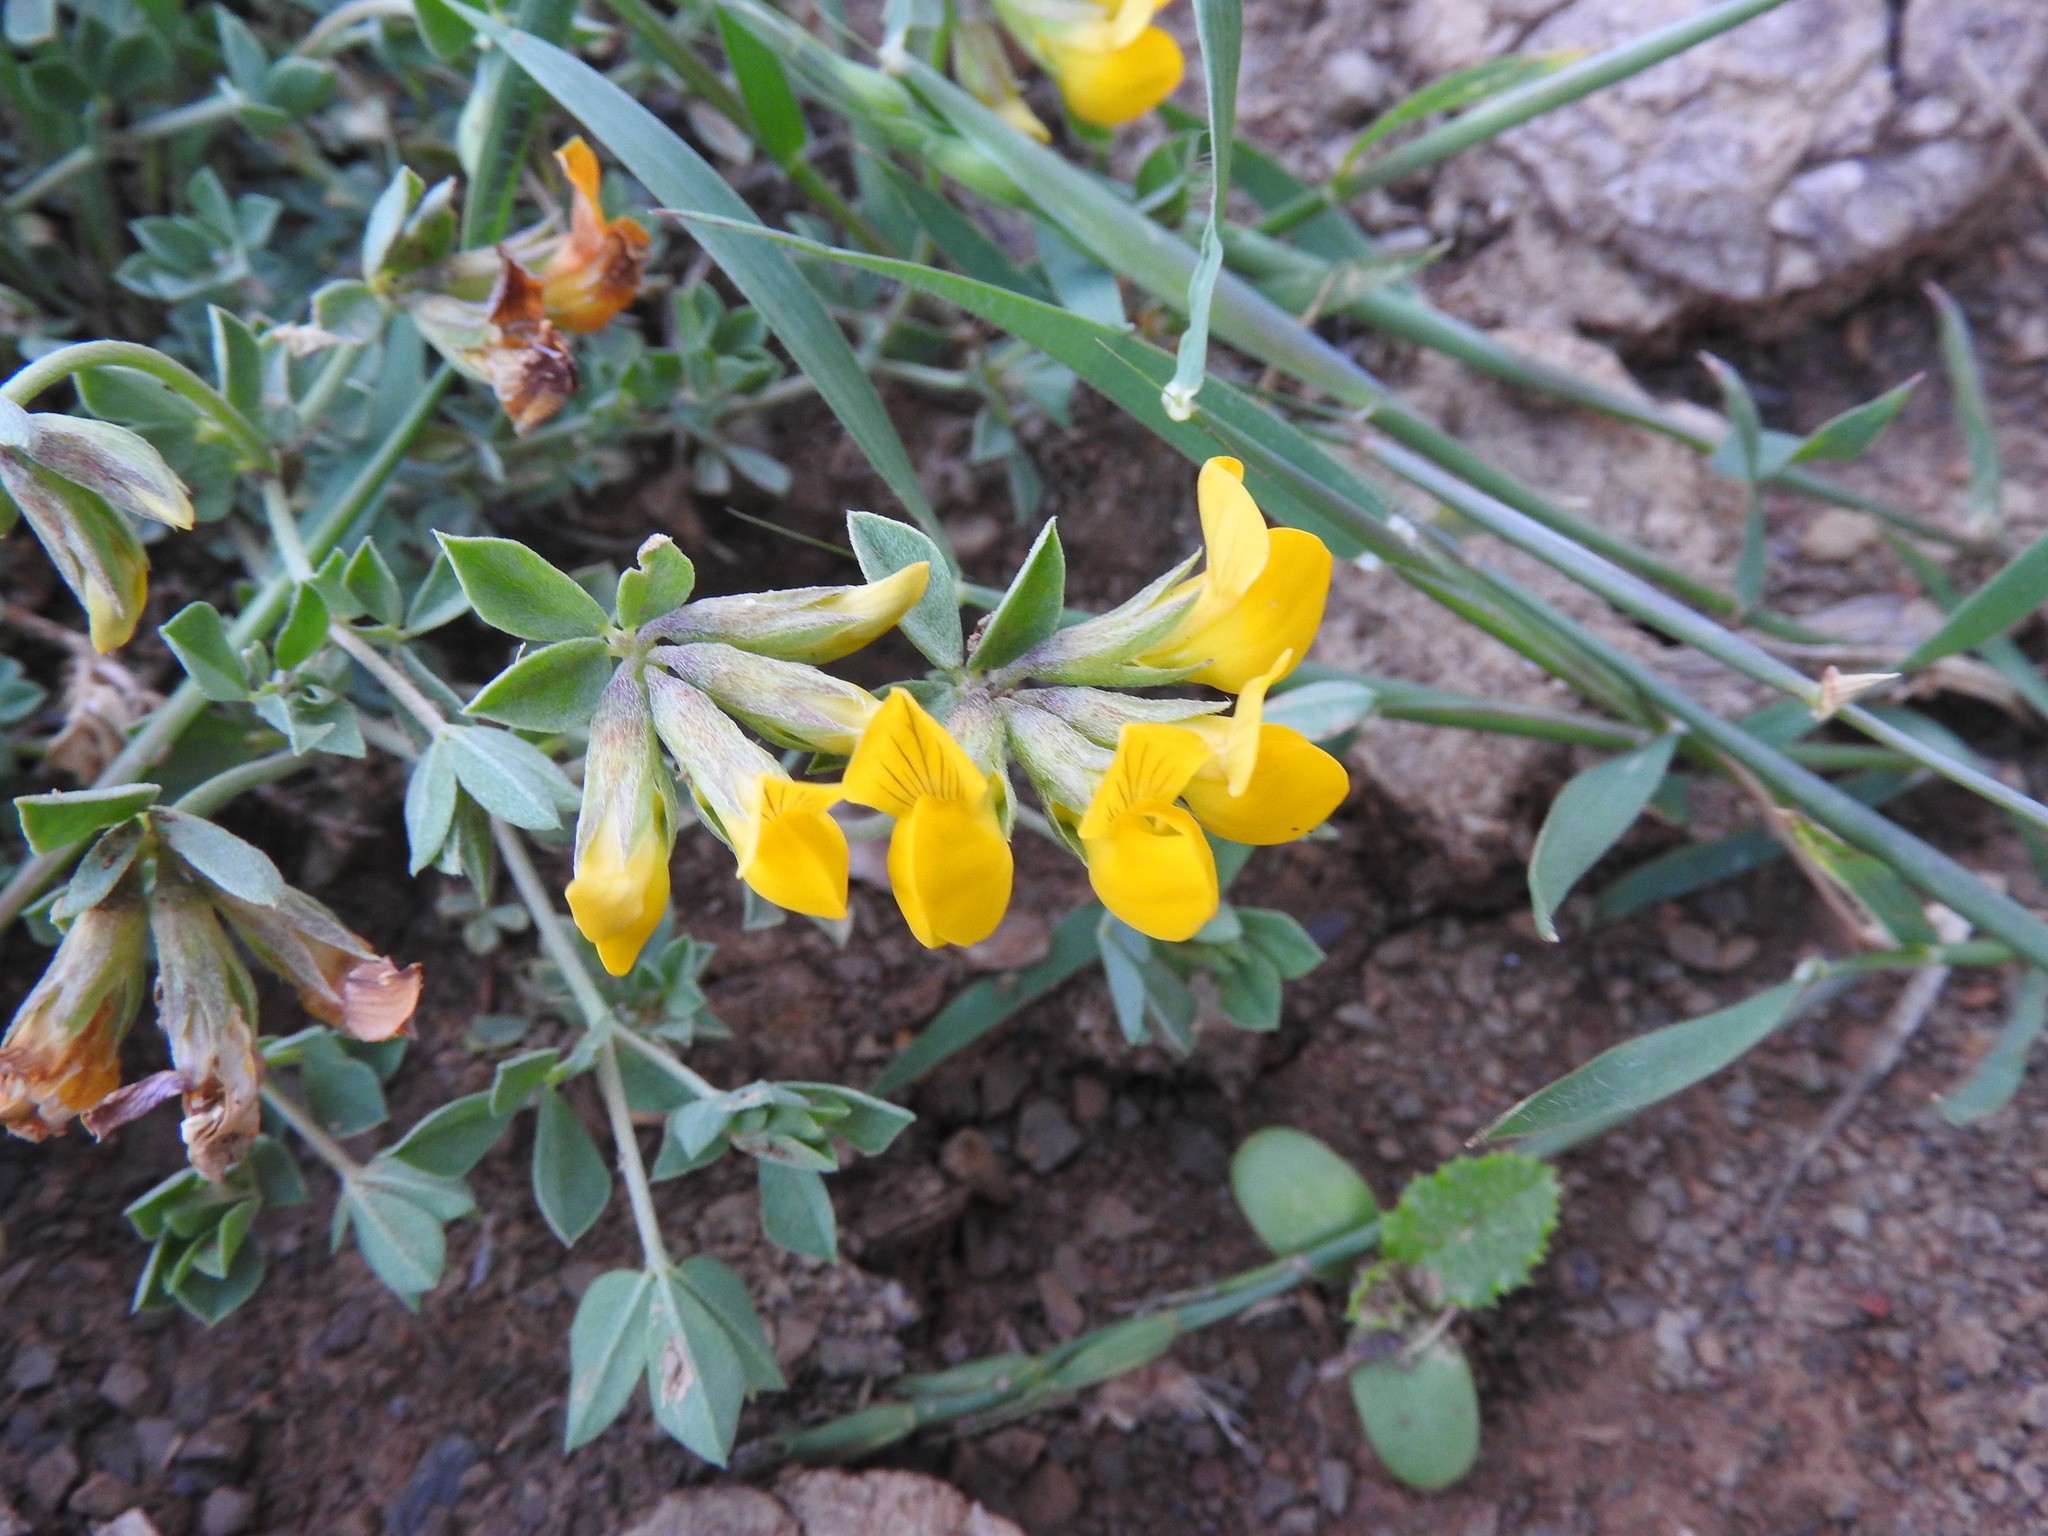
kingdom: Plantae
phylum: Tracheophyta
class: Magnoliopsida
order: Fabales
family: Fabaceae
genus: Lotus
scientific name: Lotus longisiliquosus
